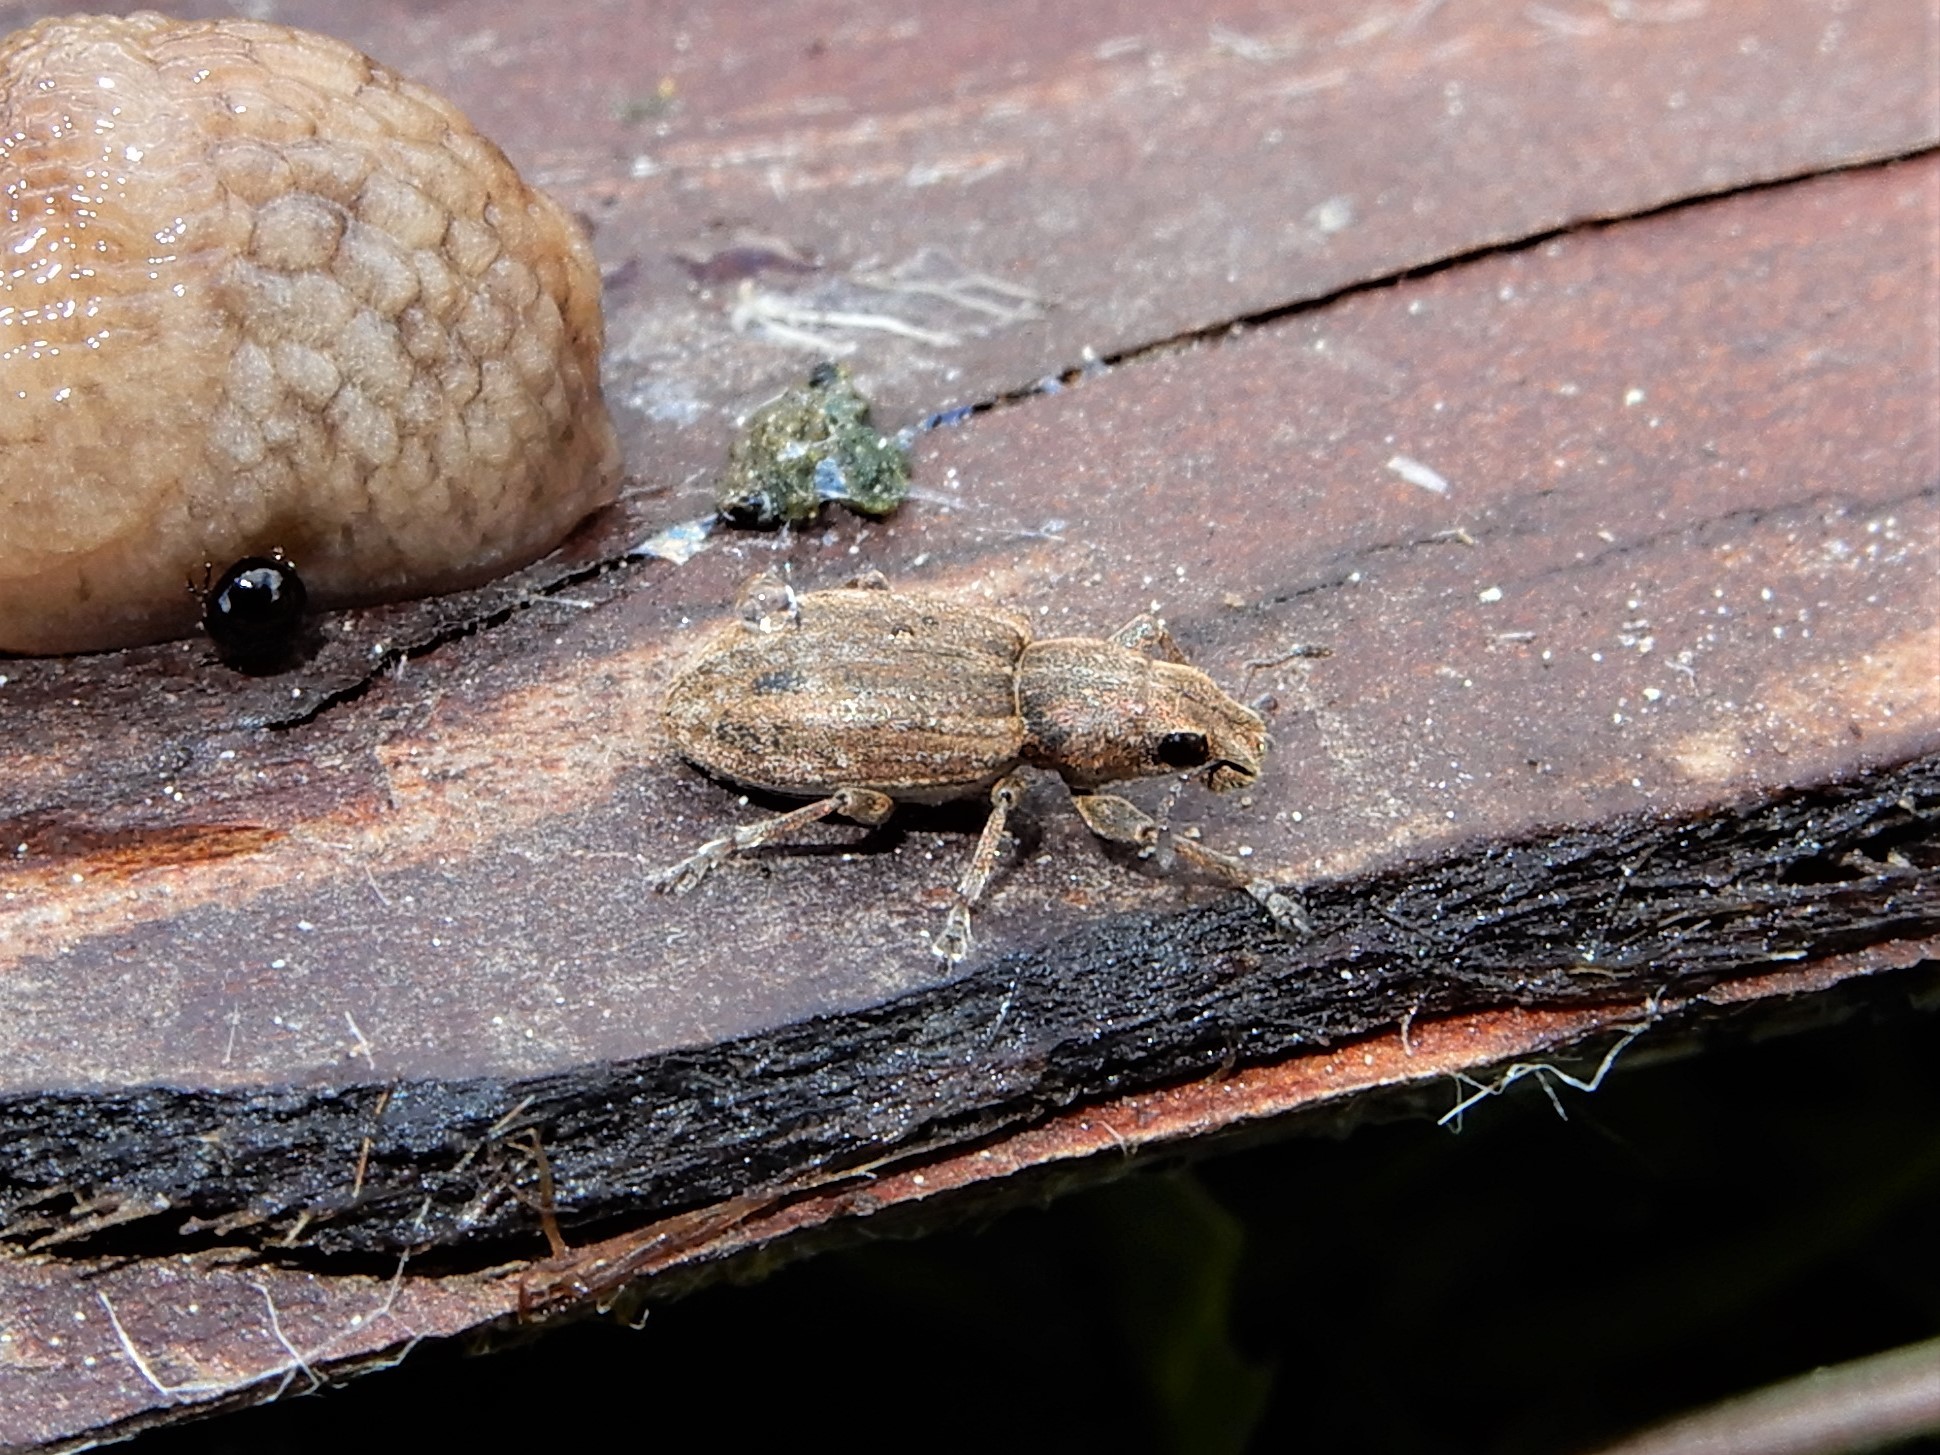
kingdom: Animalia
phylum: Arthropoda
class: Insecta
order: Coleoptera
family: Curculionidae
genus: Sitona
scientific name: Sitona obsoletus
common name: Weevil
